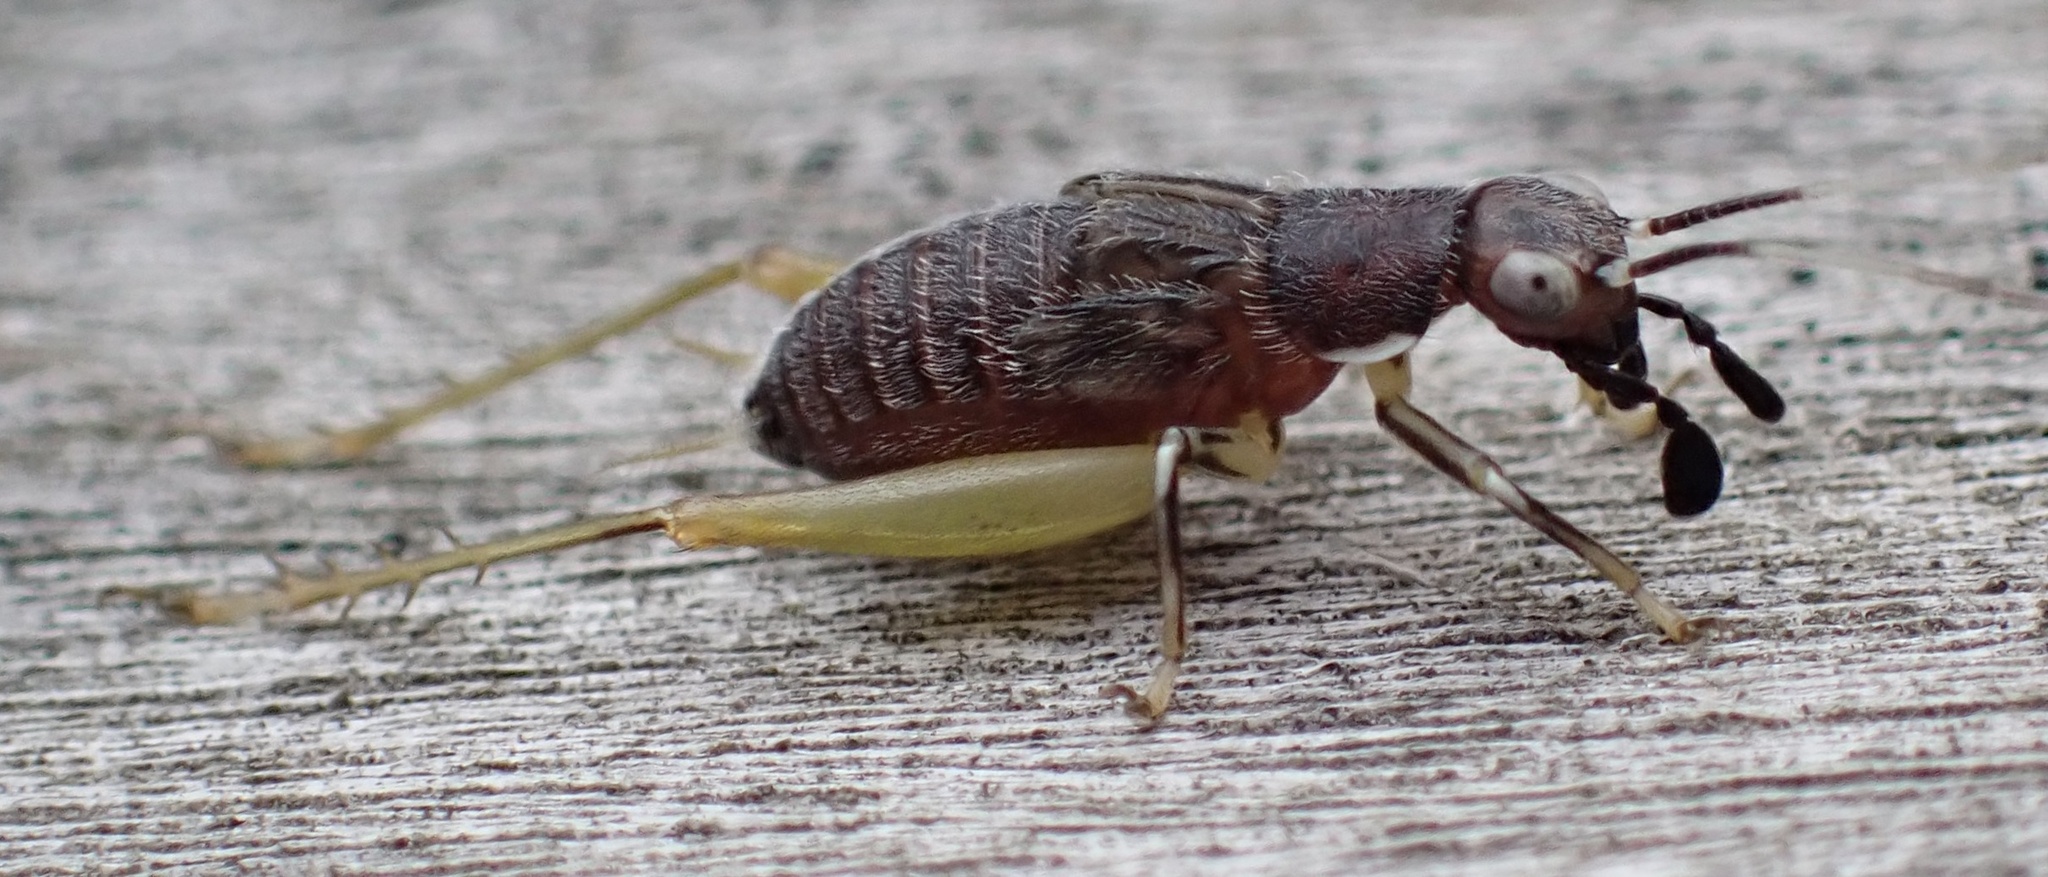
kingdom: Animalia
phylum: Arthropoda
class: Insecta
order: Orthoptera
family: Trigonidiidae
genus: Phyllopalpus
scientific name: Phyllopalpus pulchellus
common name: Handsome trig
